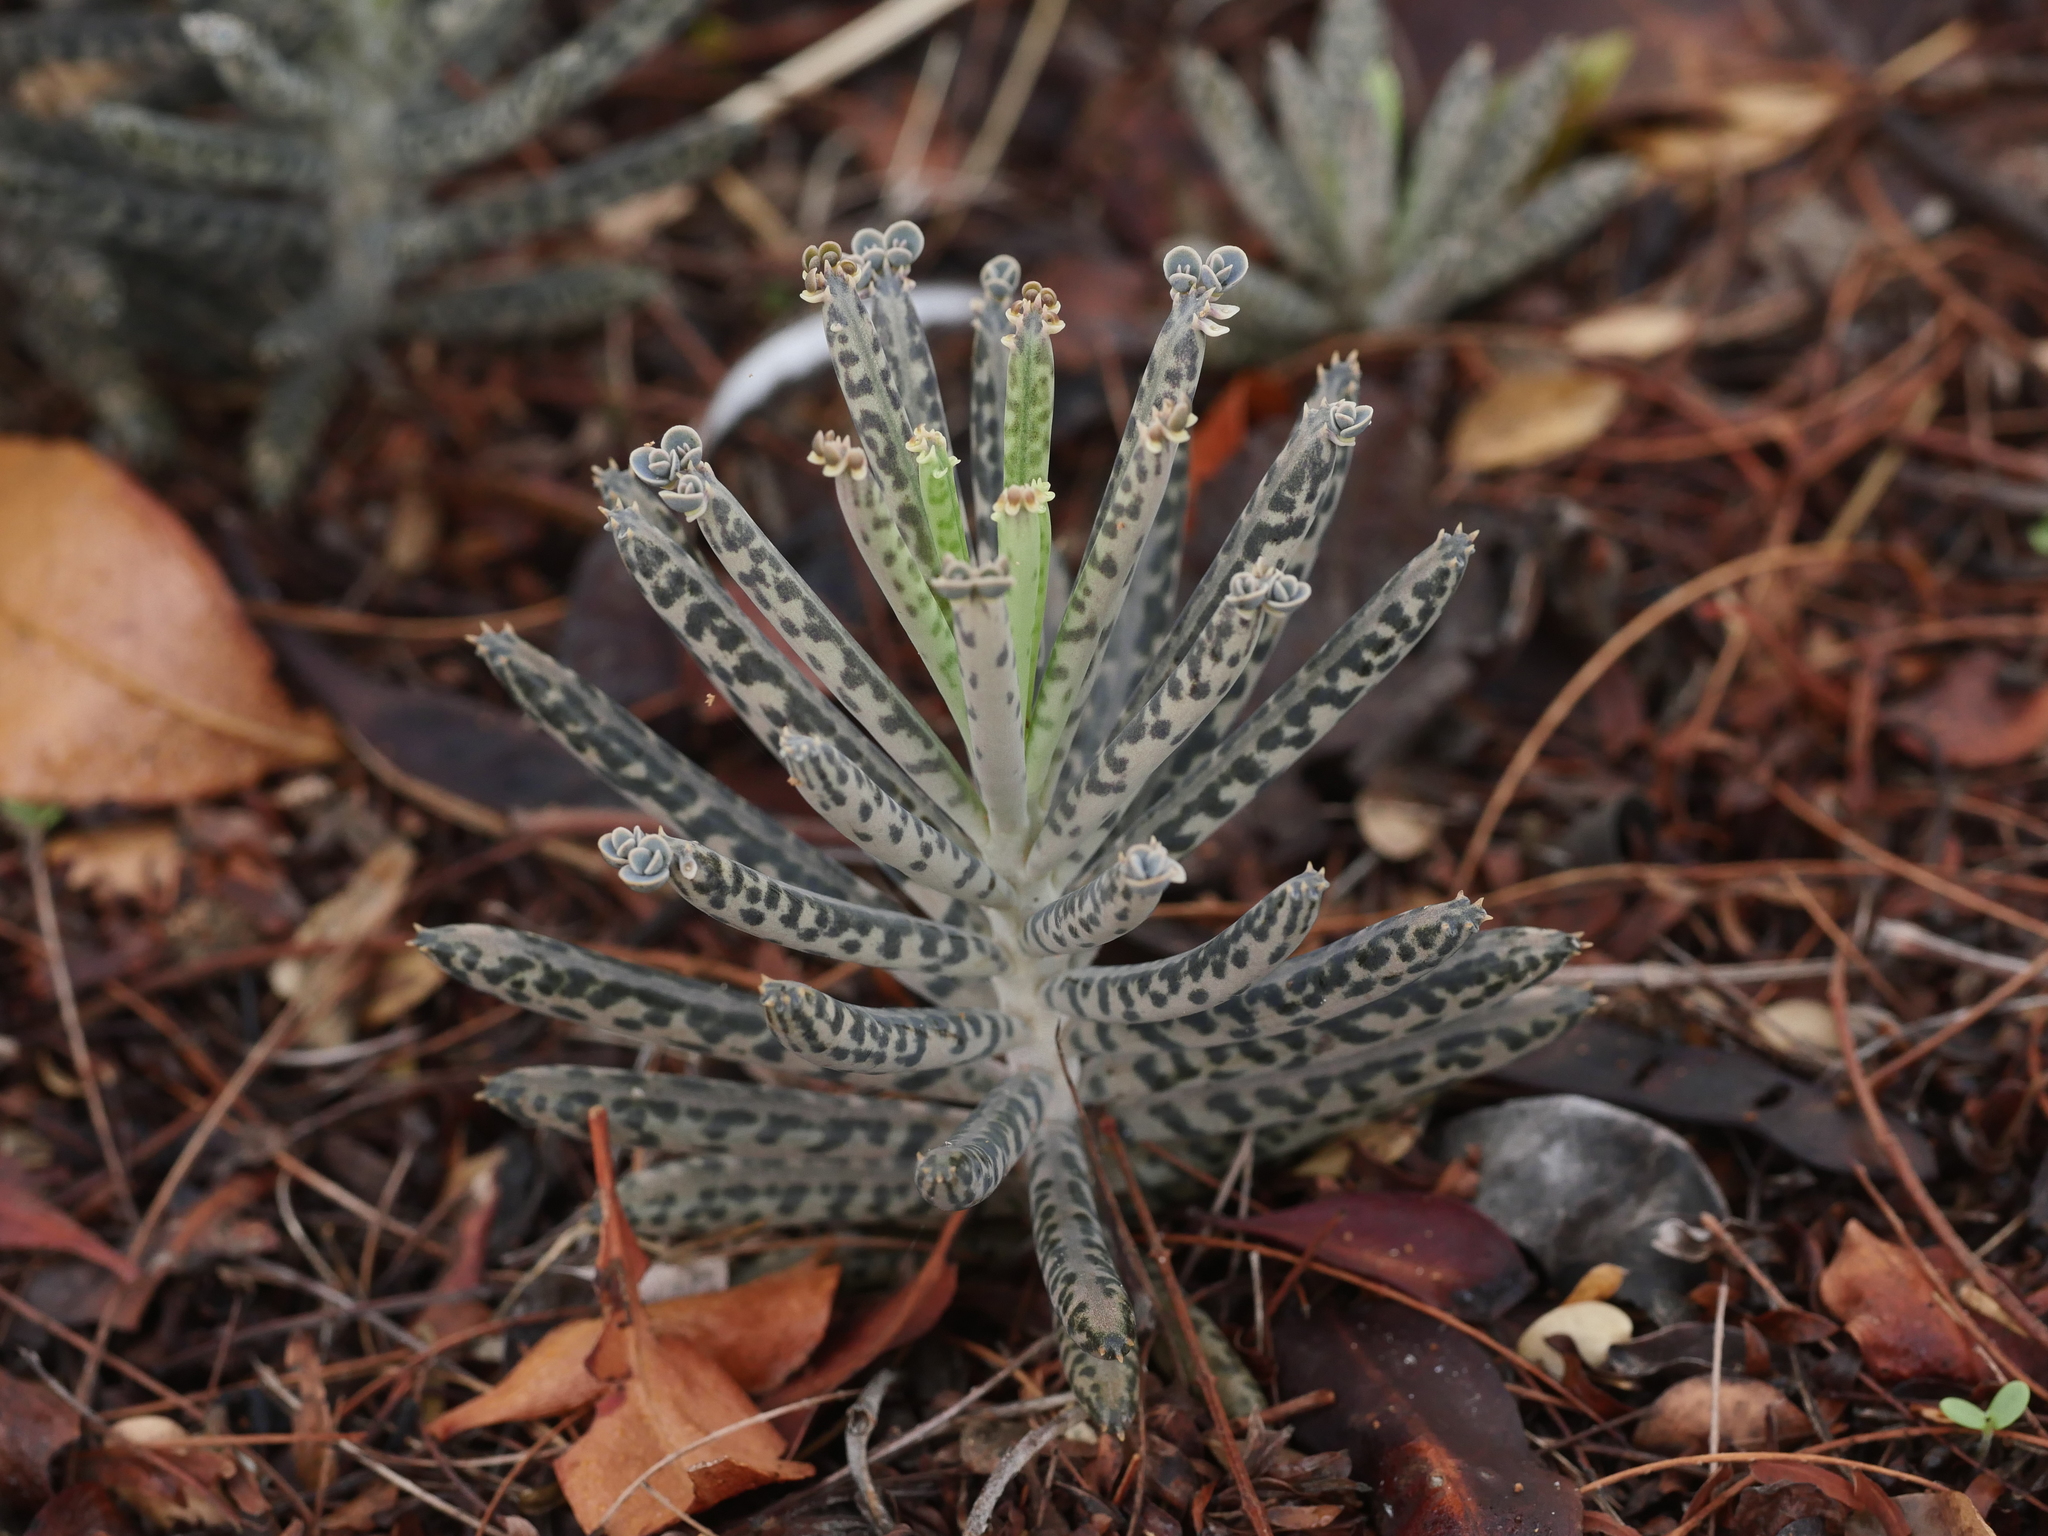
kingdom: Plantae
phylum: Tracheophyta
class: Magnoliopsida
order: Saxifragales
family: Crassulaceae
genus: Kalanchoe
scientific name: Kalanchoe delagoensis
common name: Chandelier plant
